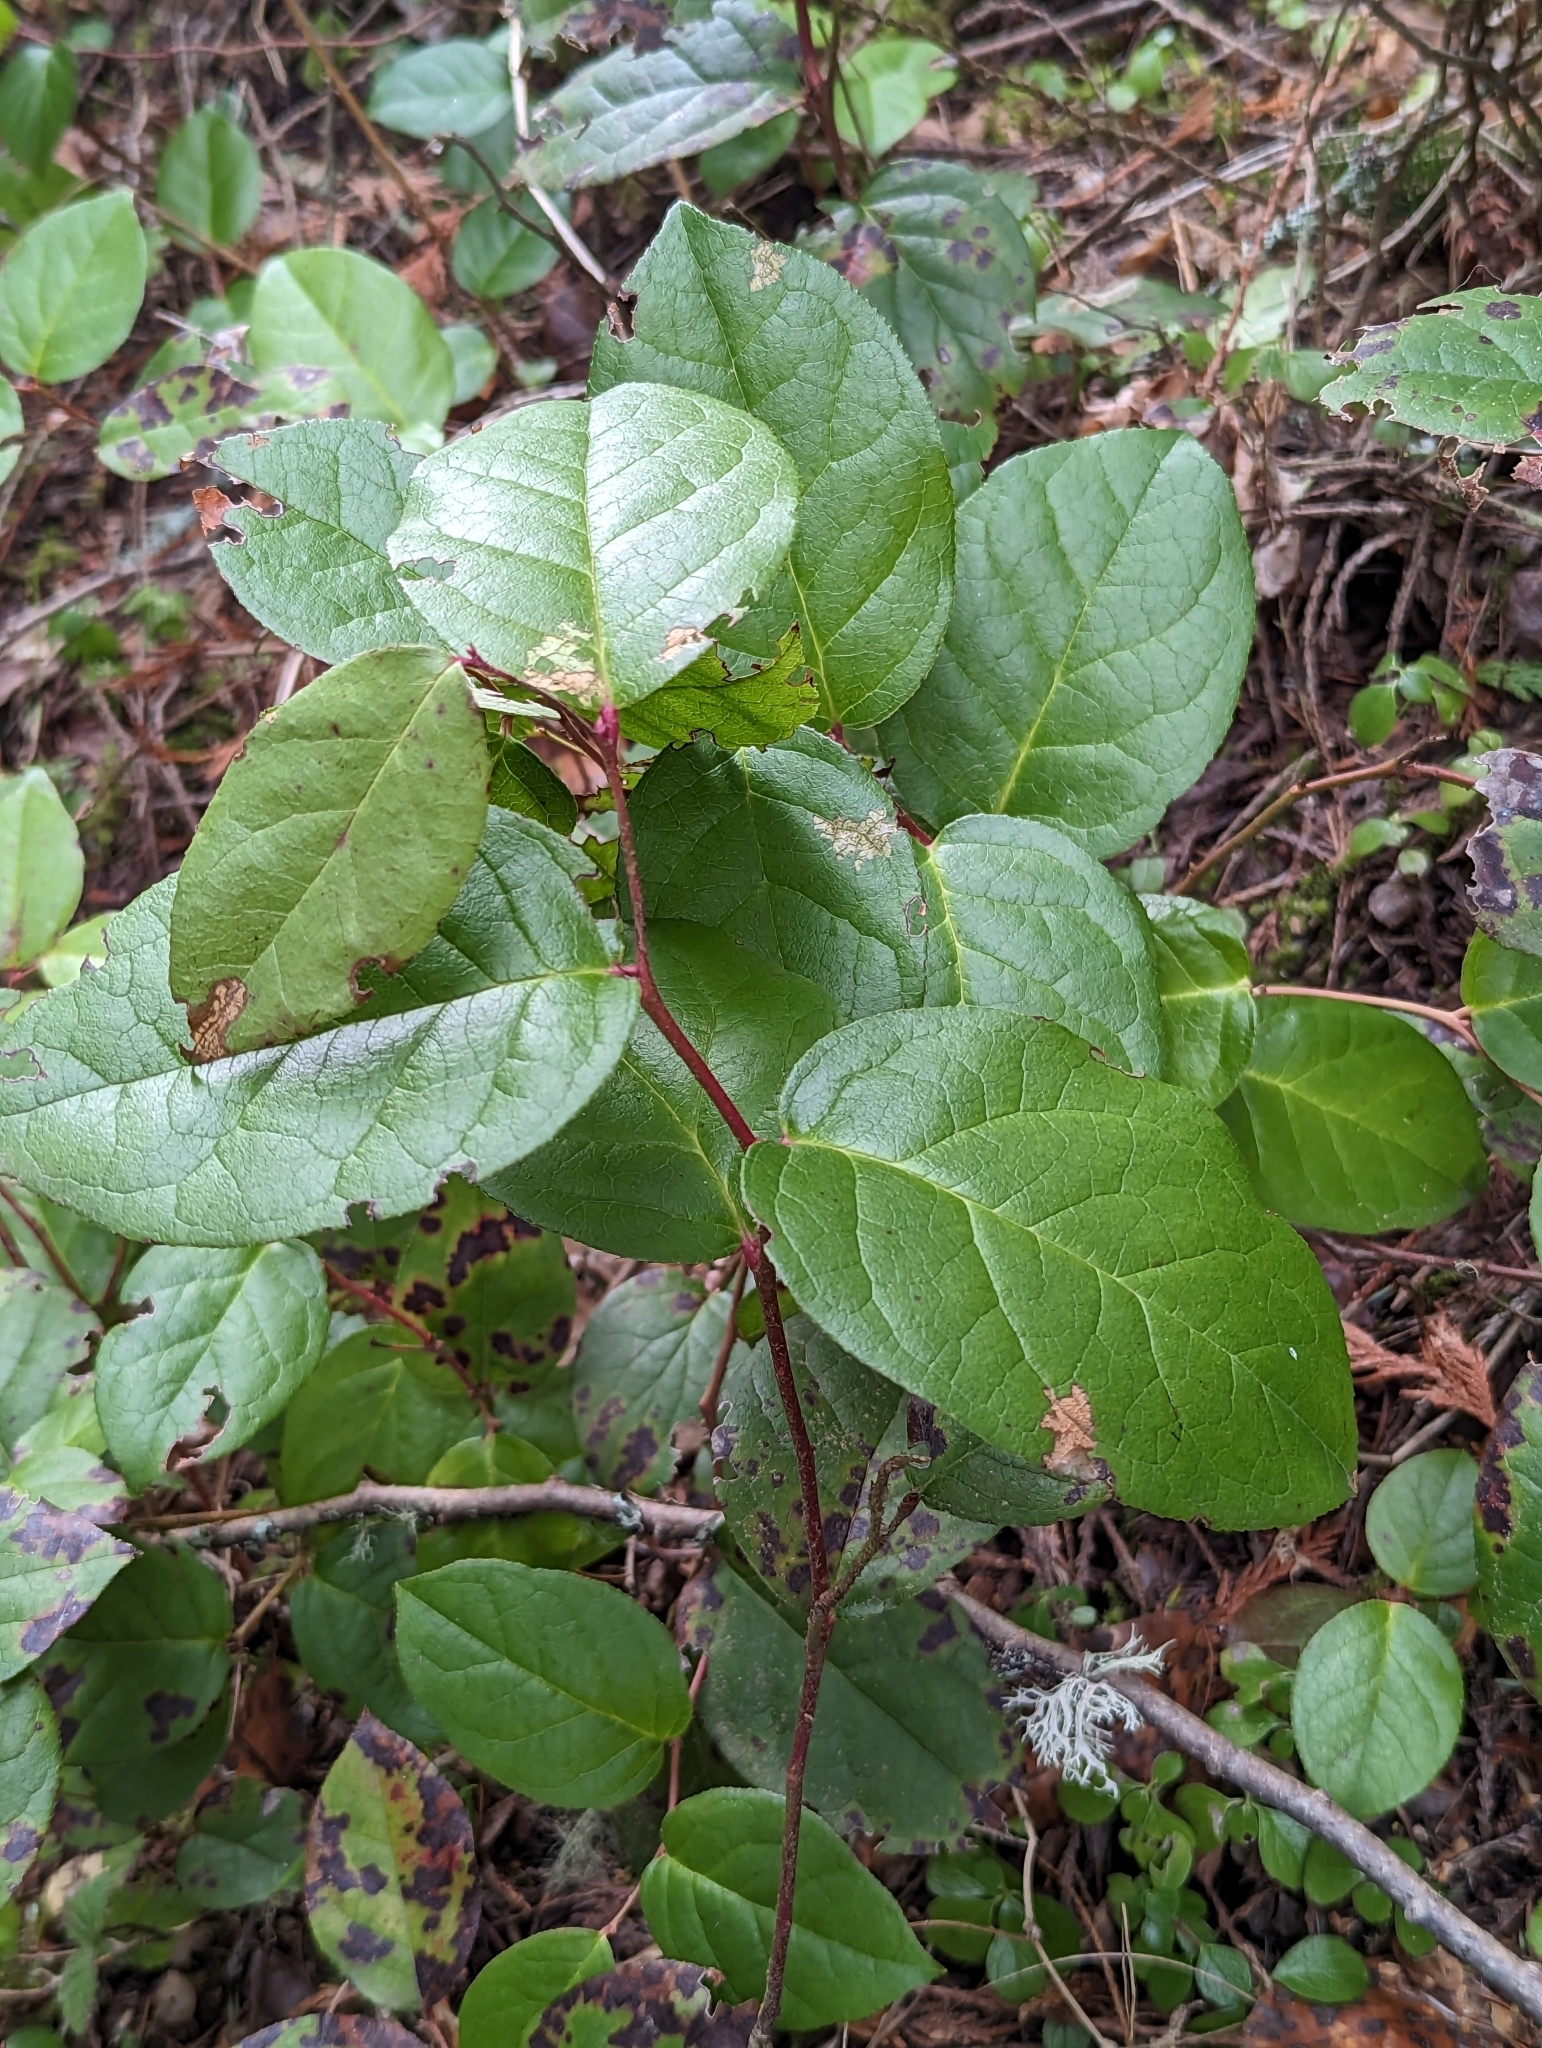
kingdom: Plantae
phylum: Tracheophyta
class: Magnoliopsida
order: Ericales
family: Ericaceae
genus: Gaultheria
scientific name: Gaultheria shallon
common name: Shallon
